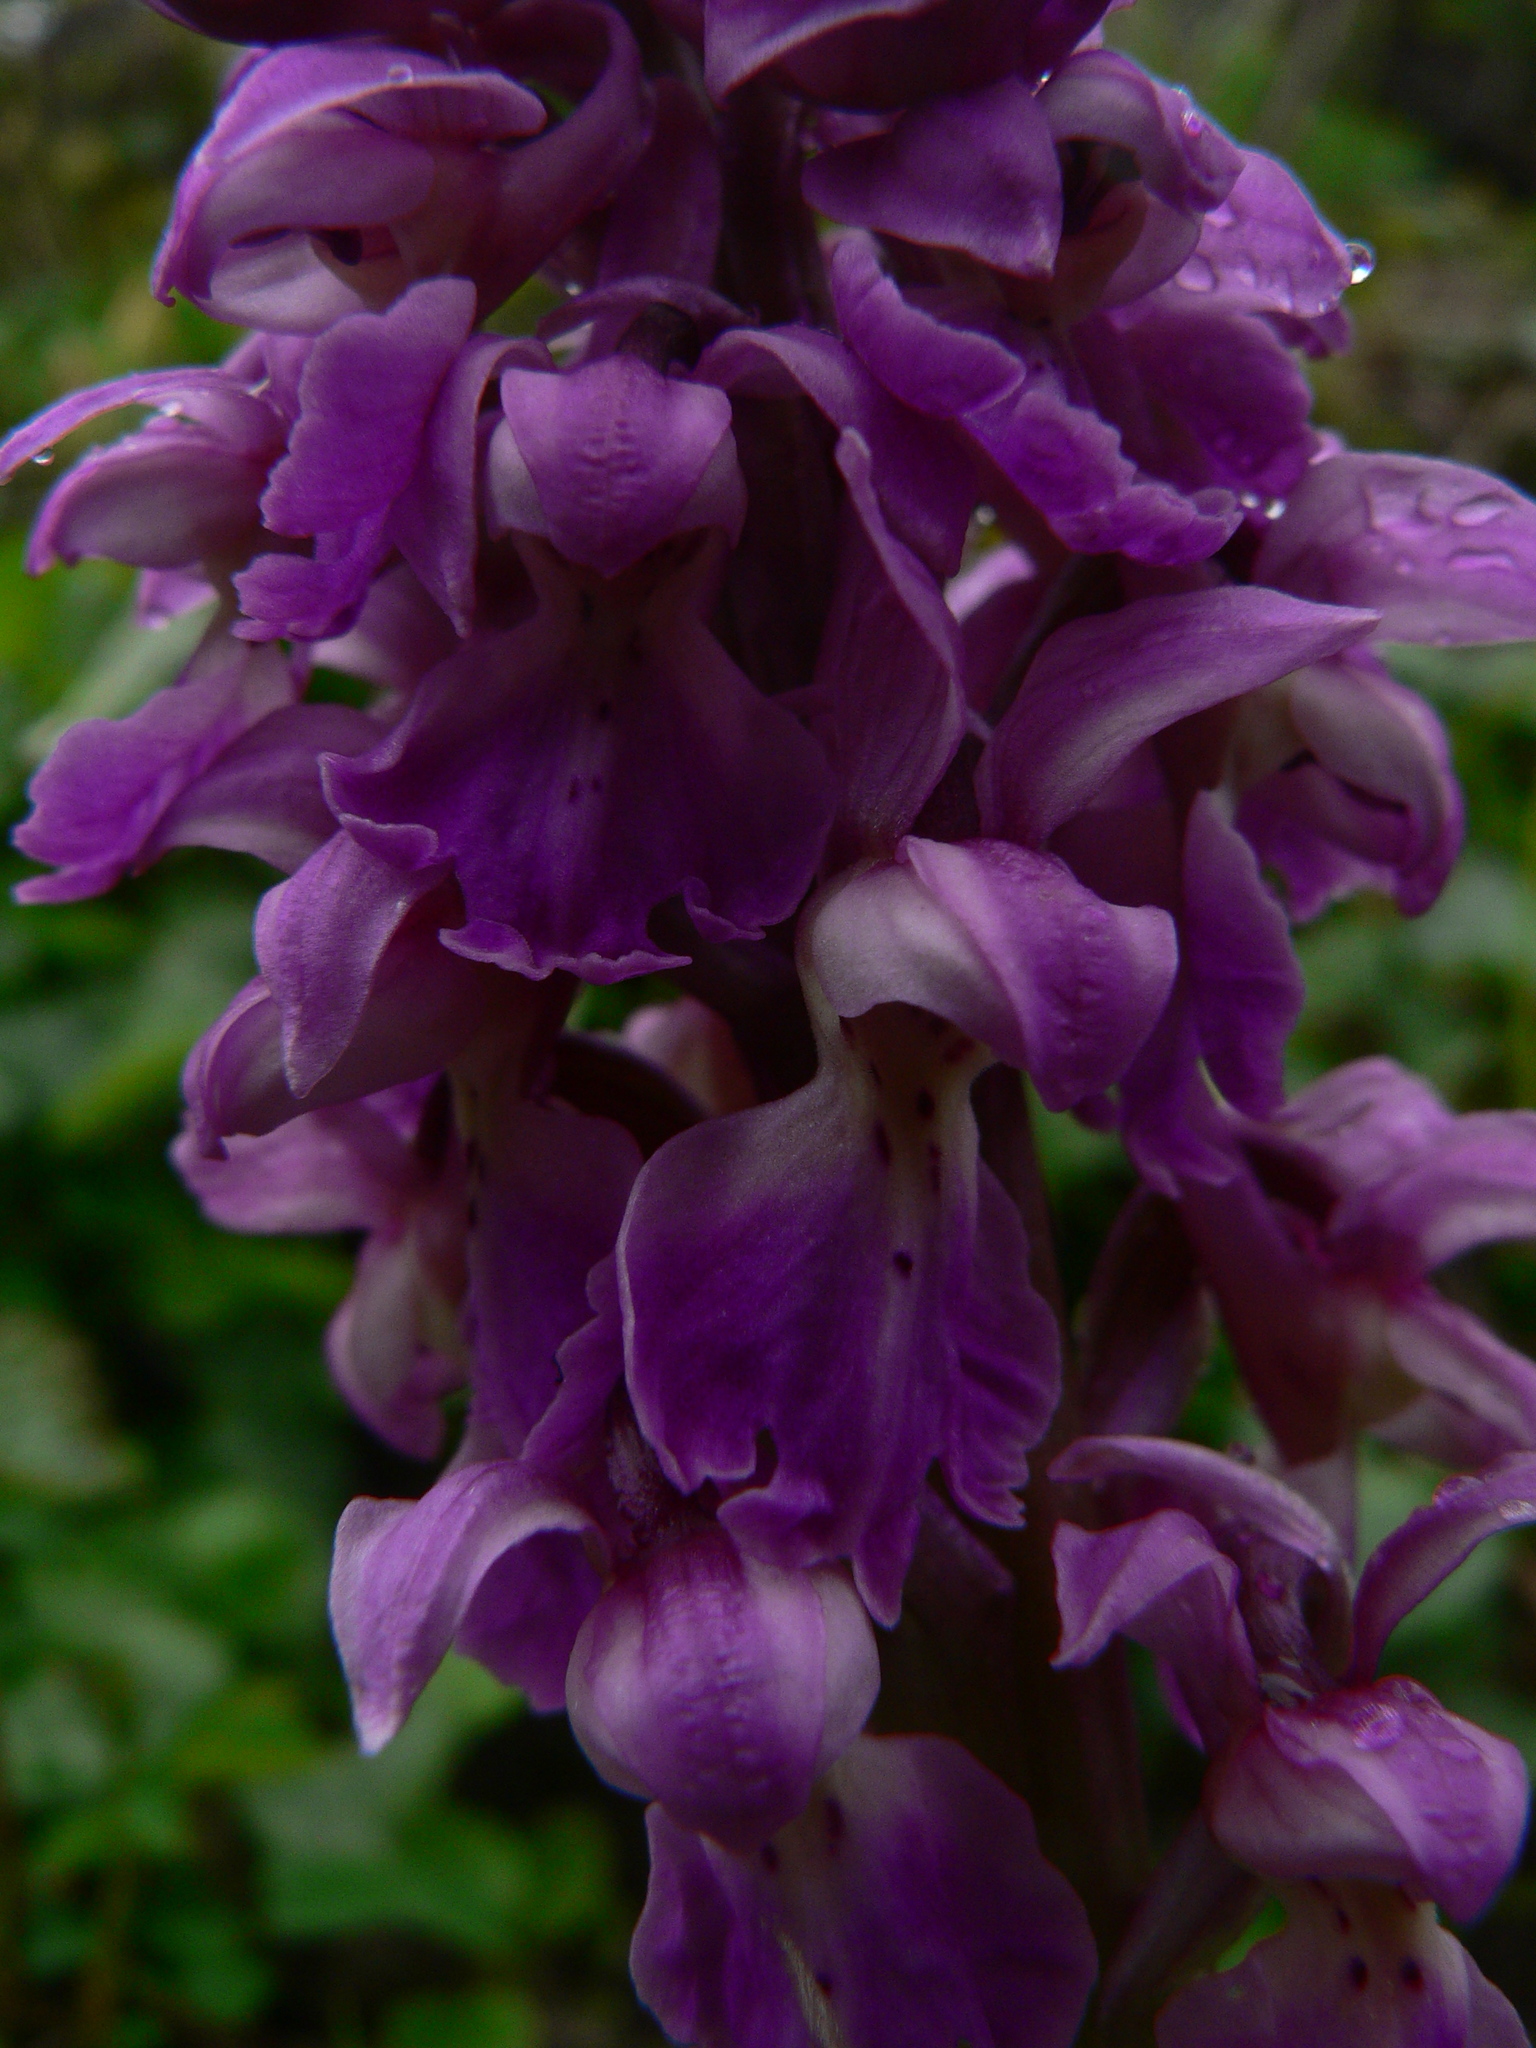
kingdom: Plantae
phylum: Tracheophyta
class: Liliopsida
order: Asparagales
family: Orchidaceae
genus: Orchis
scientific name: Orchis mascula
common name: Early-purple orchid
